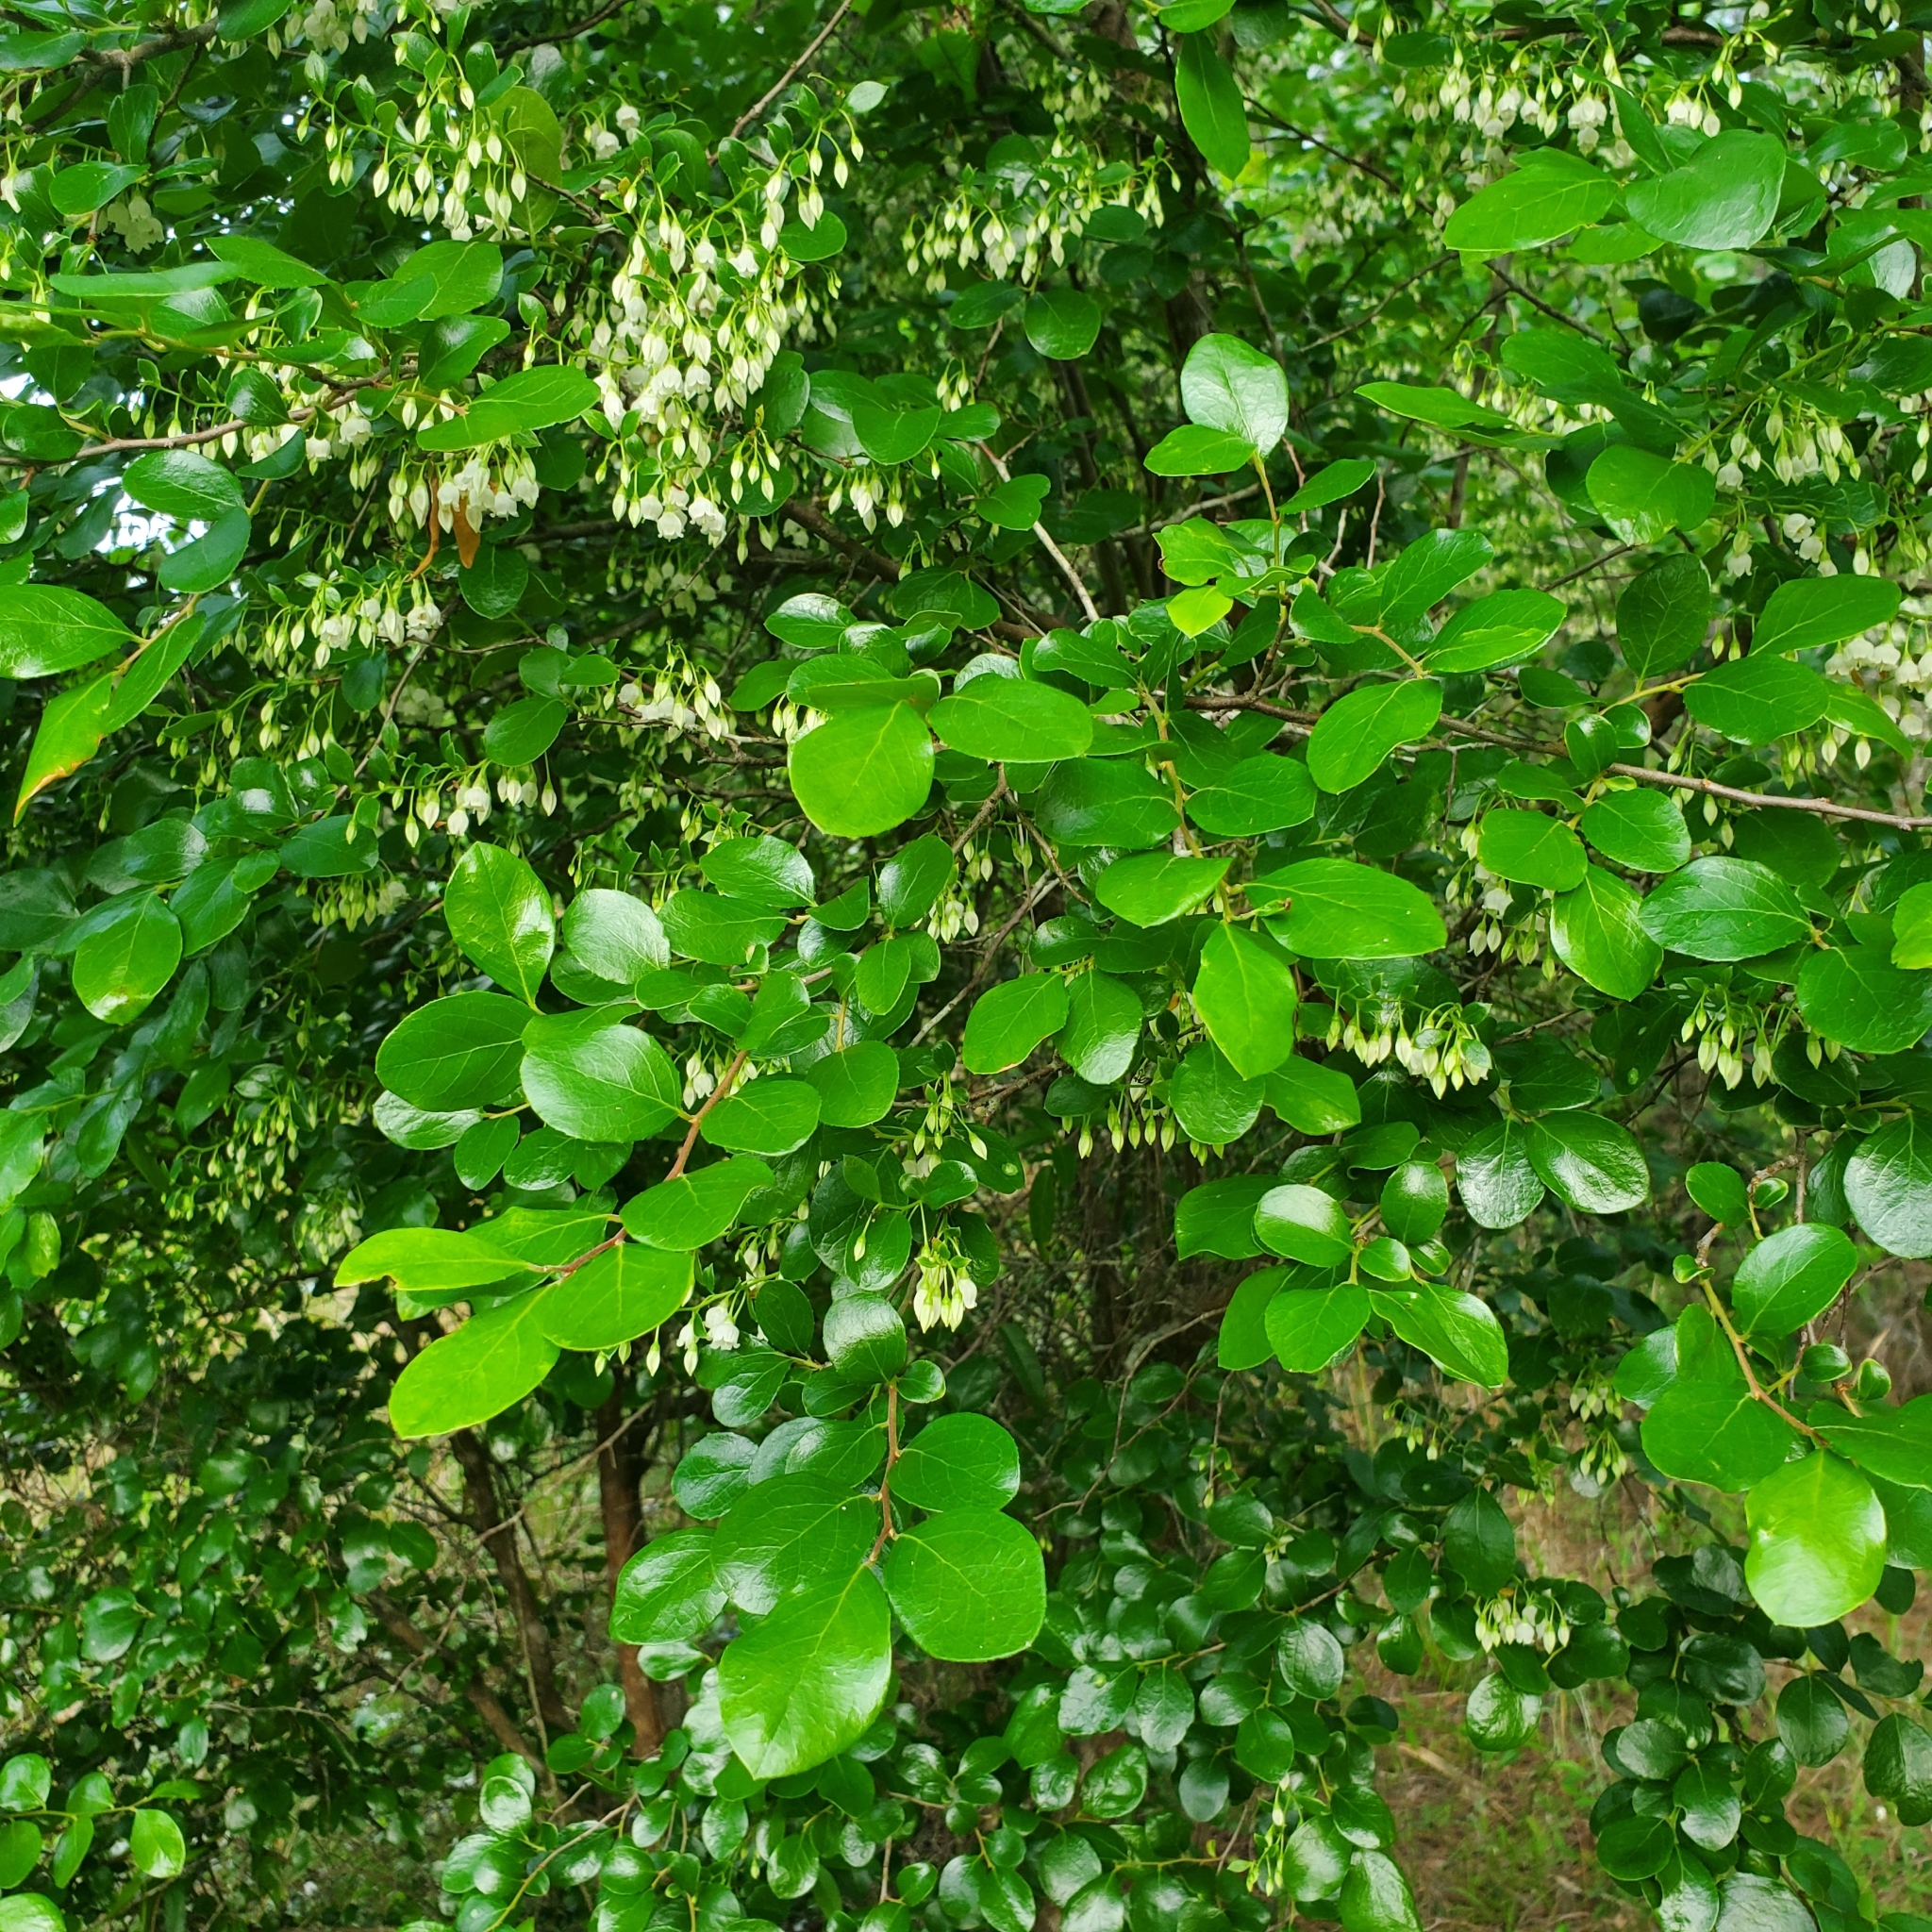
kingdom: Plantae
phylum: Tracheophyta
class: Magnoliopsida
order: Ericales
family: Ericaceae
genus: Vaccinium
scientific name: Vaccinium arboreum
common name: Farkleberry
